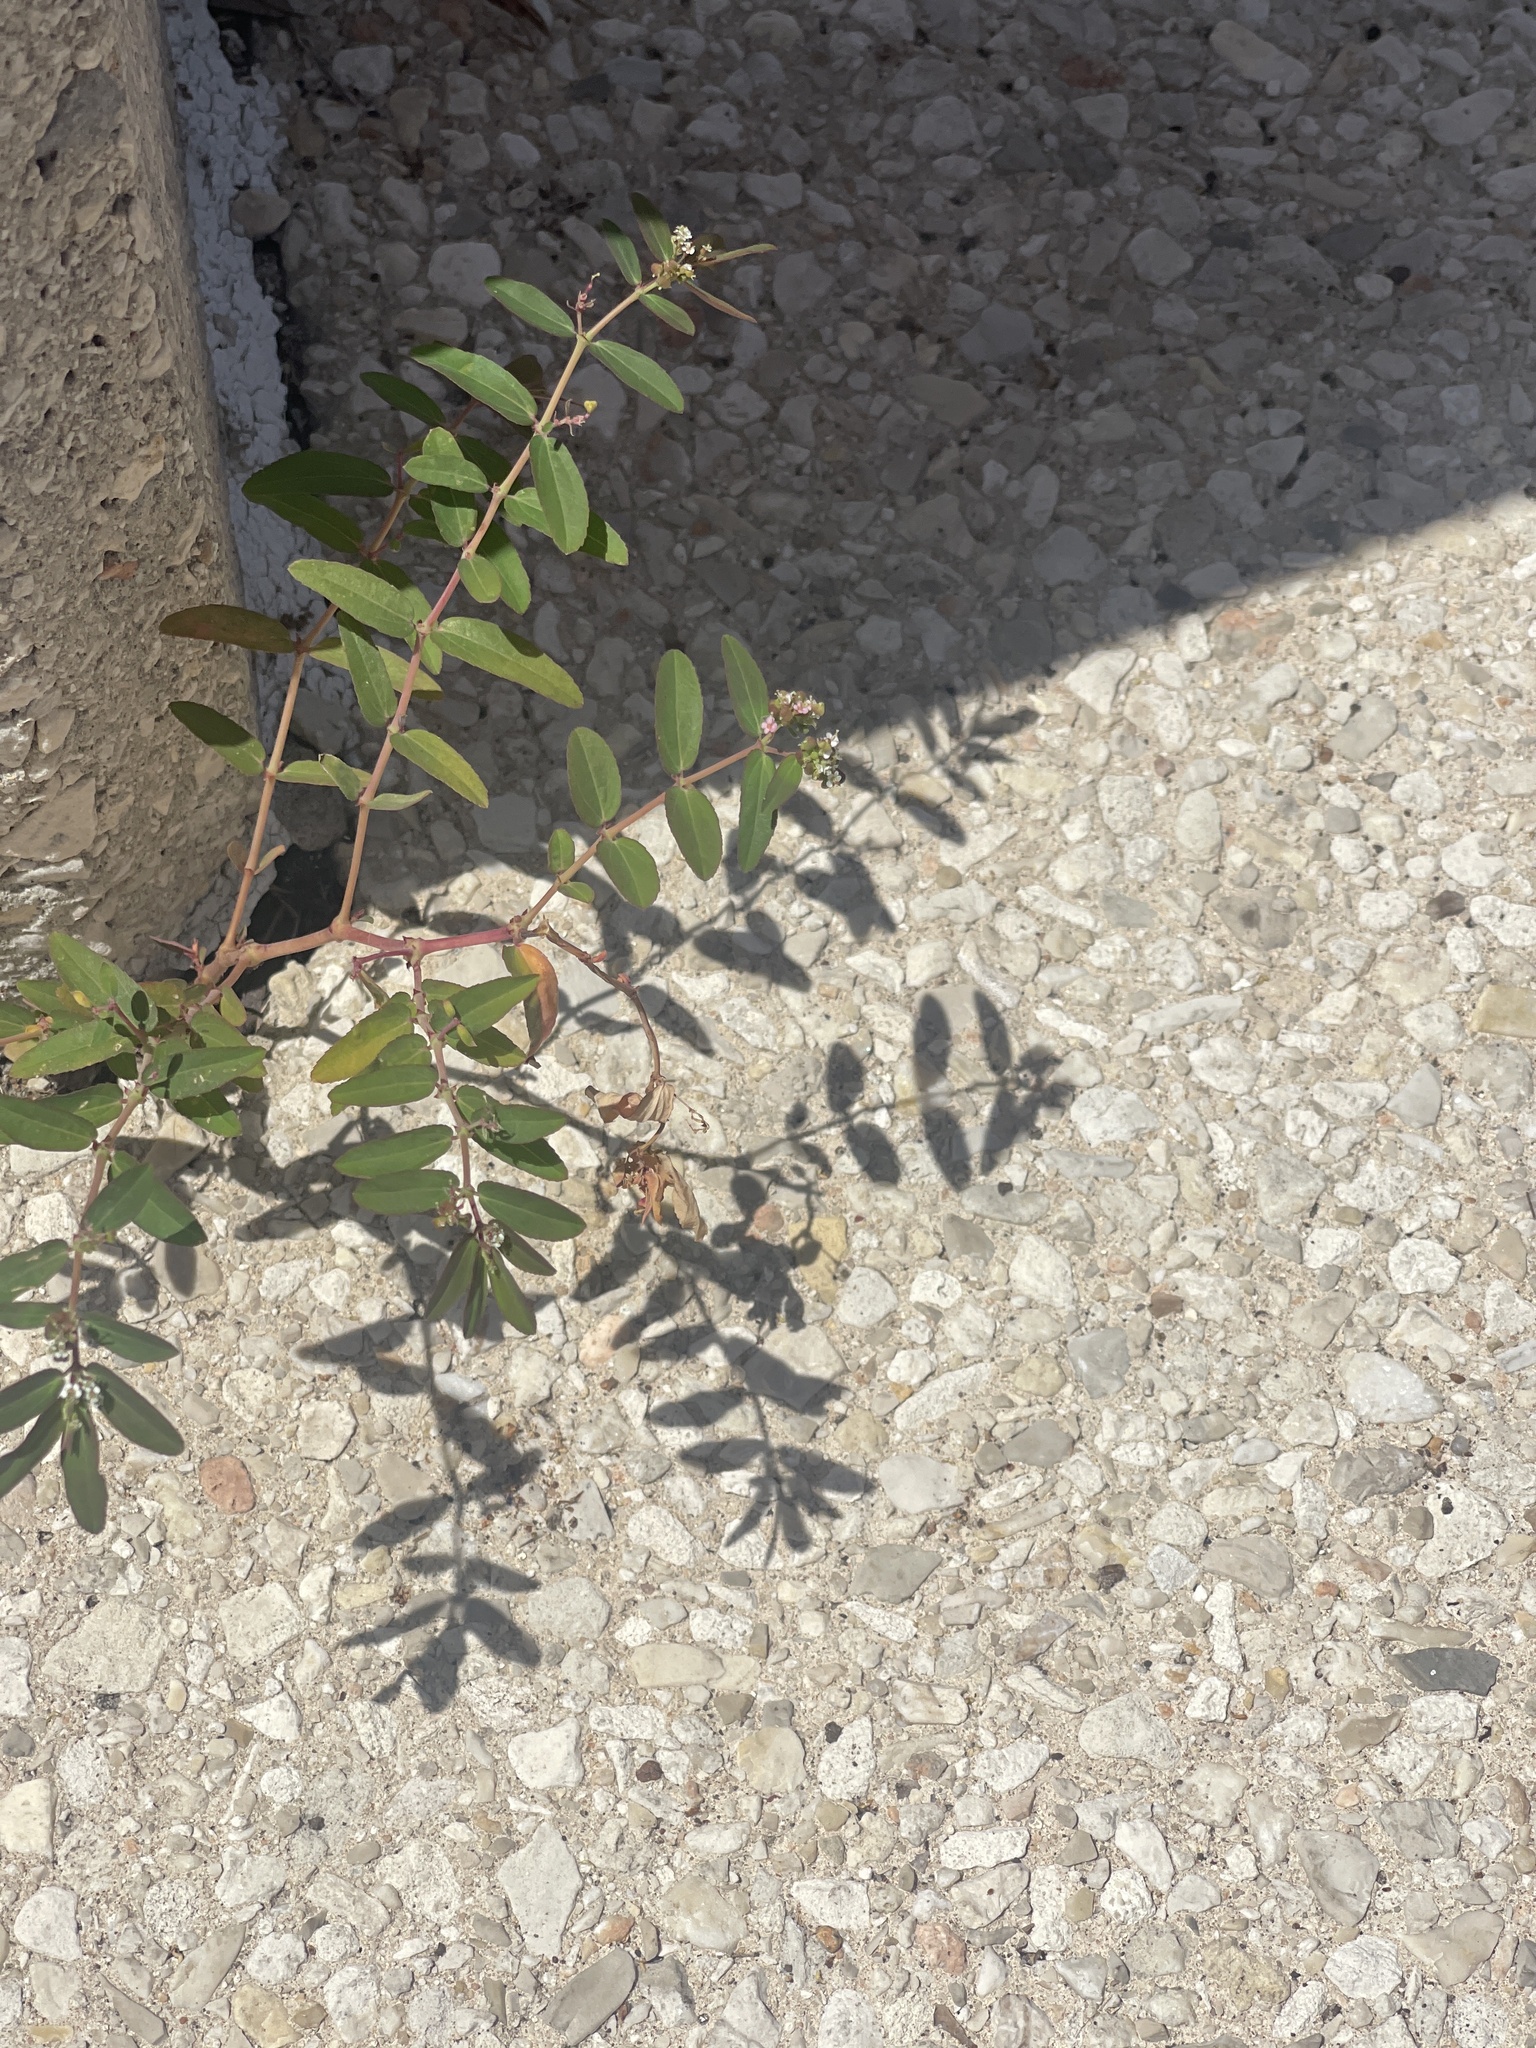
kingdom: Plantae
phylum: Tracheophyta
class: Magnoliopsida
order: Malpighiales
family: Euphorbiaceae
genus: Euphorbia
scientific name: Euphorbia hypericifolia
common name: Graceful sandmat
